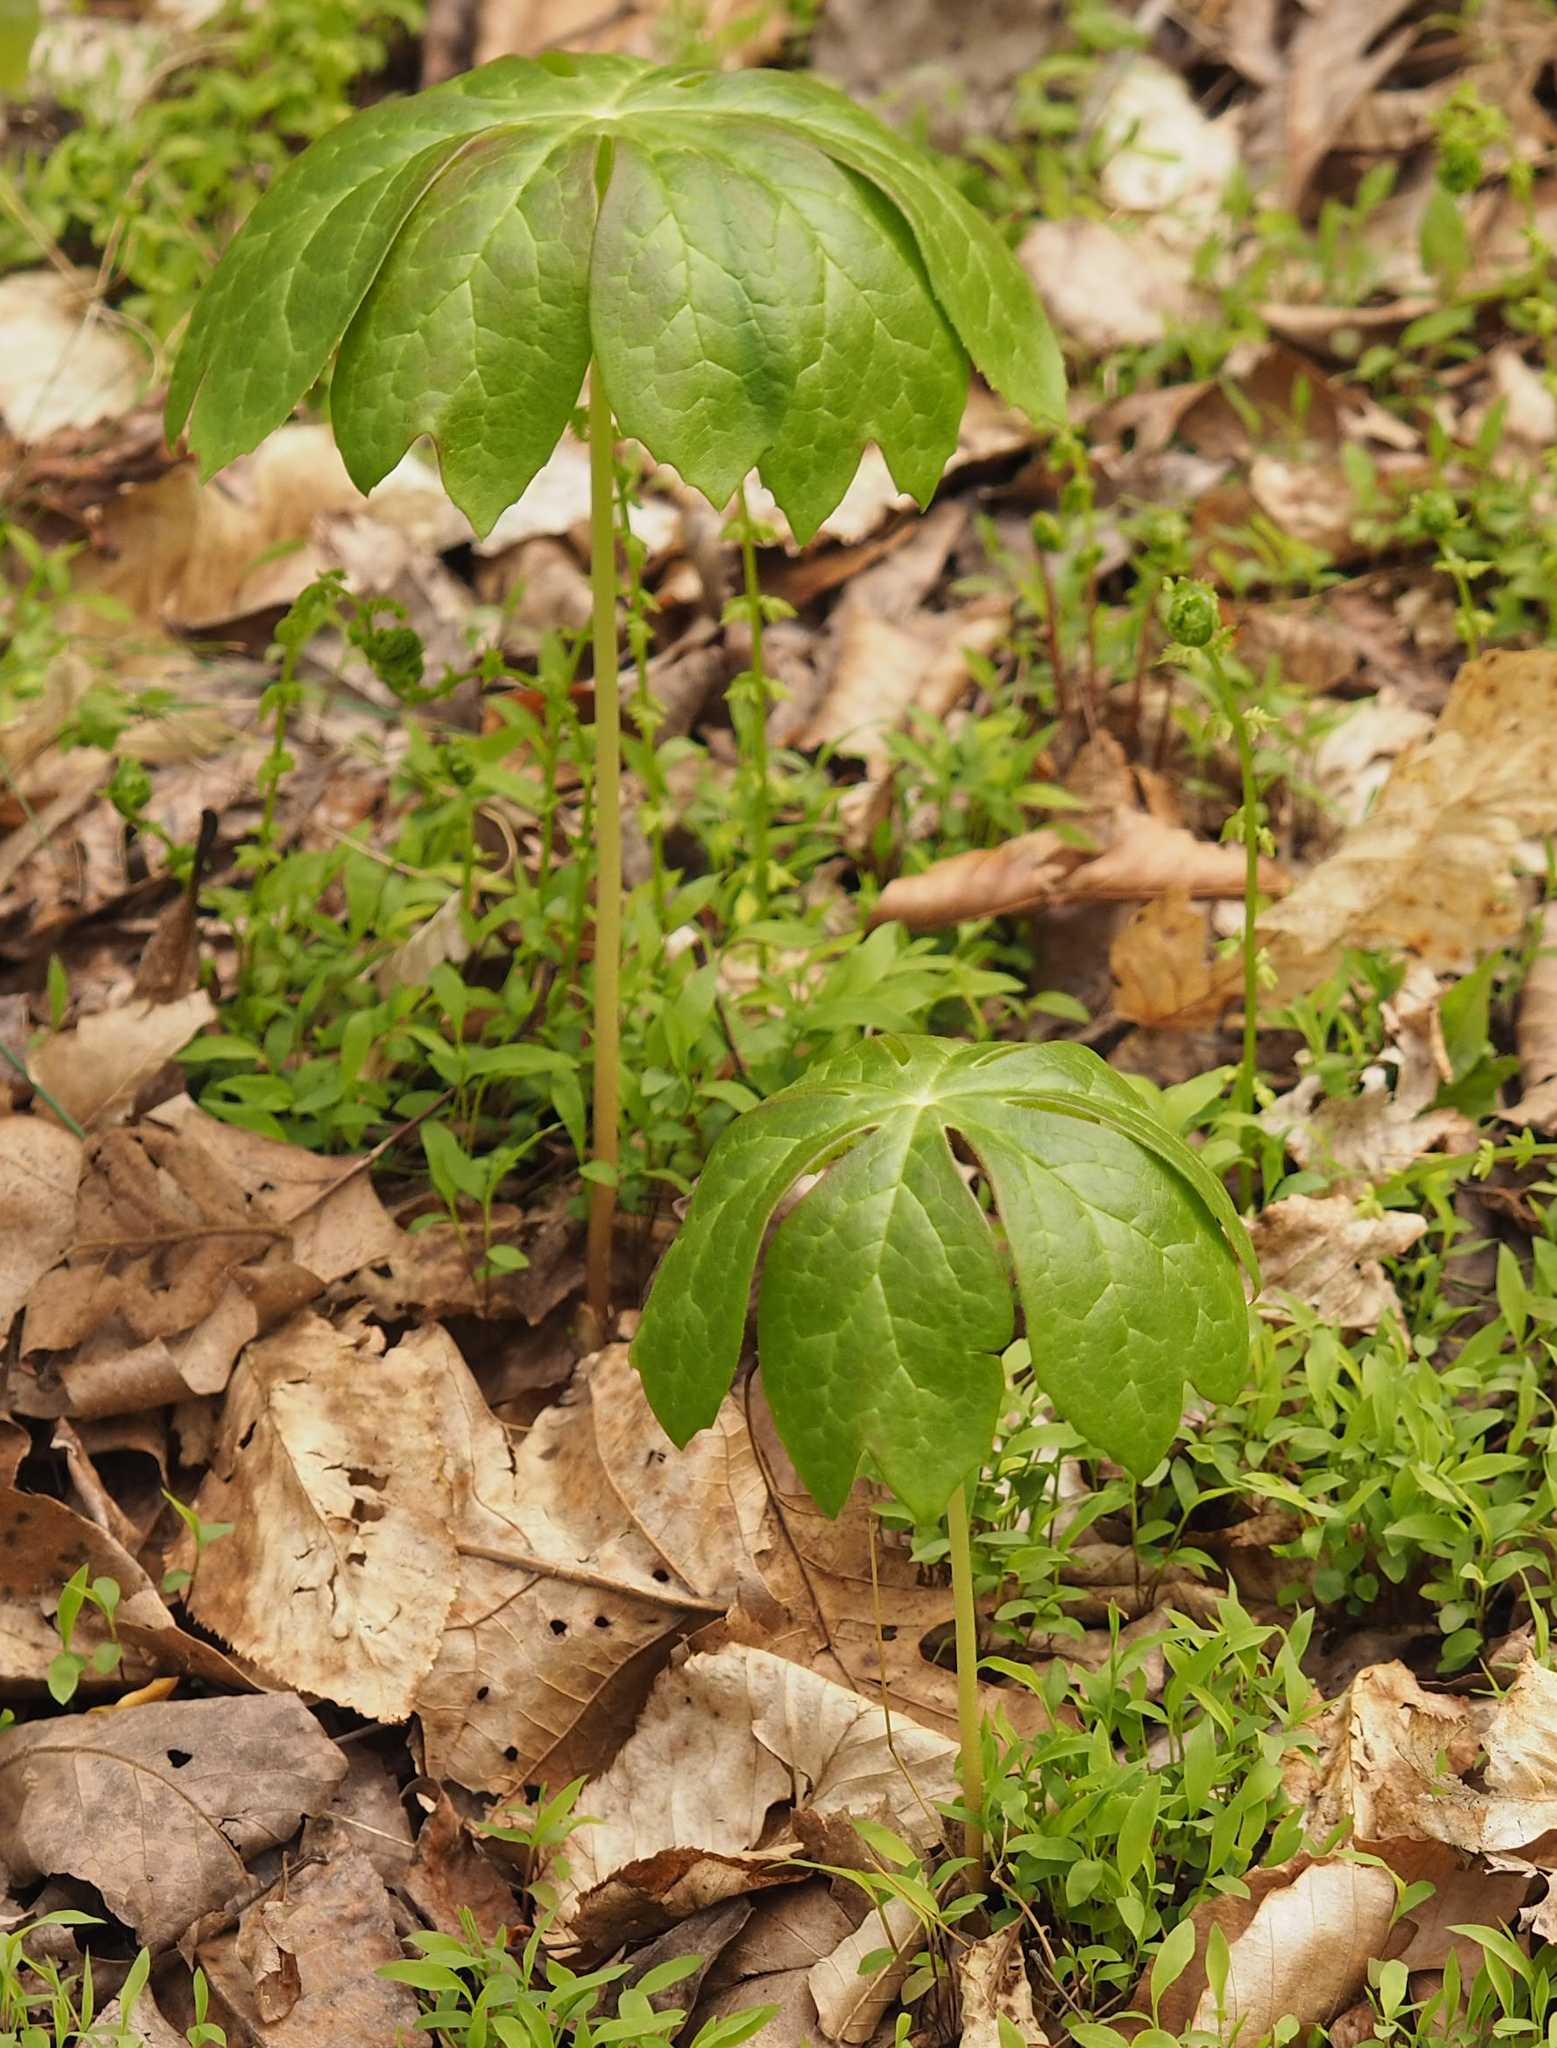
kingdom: Plantae
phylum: Tracheophyta
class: Magnoliopsida
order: Ranunculales
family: Berberidaceae
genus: Podophyllum
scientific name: Podophyllum peltatum
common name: Wild mandrake
